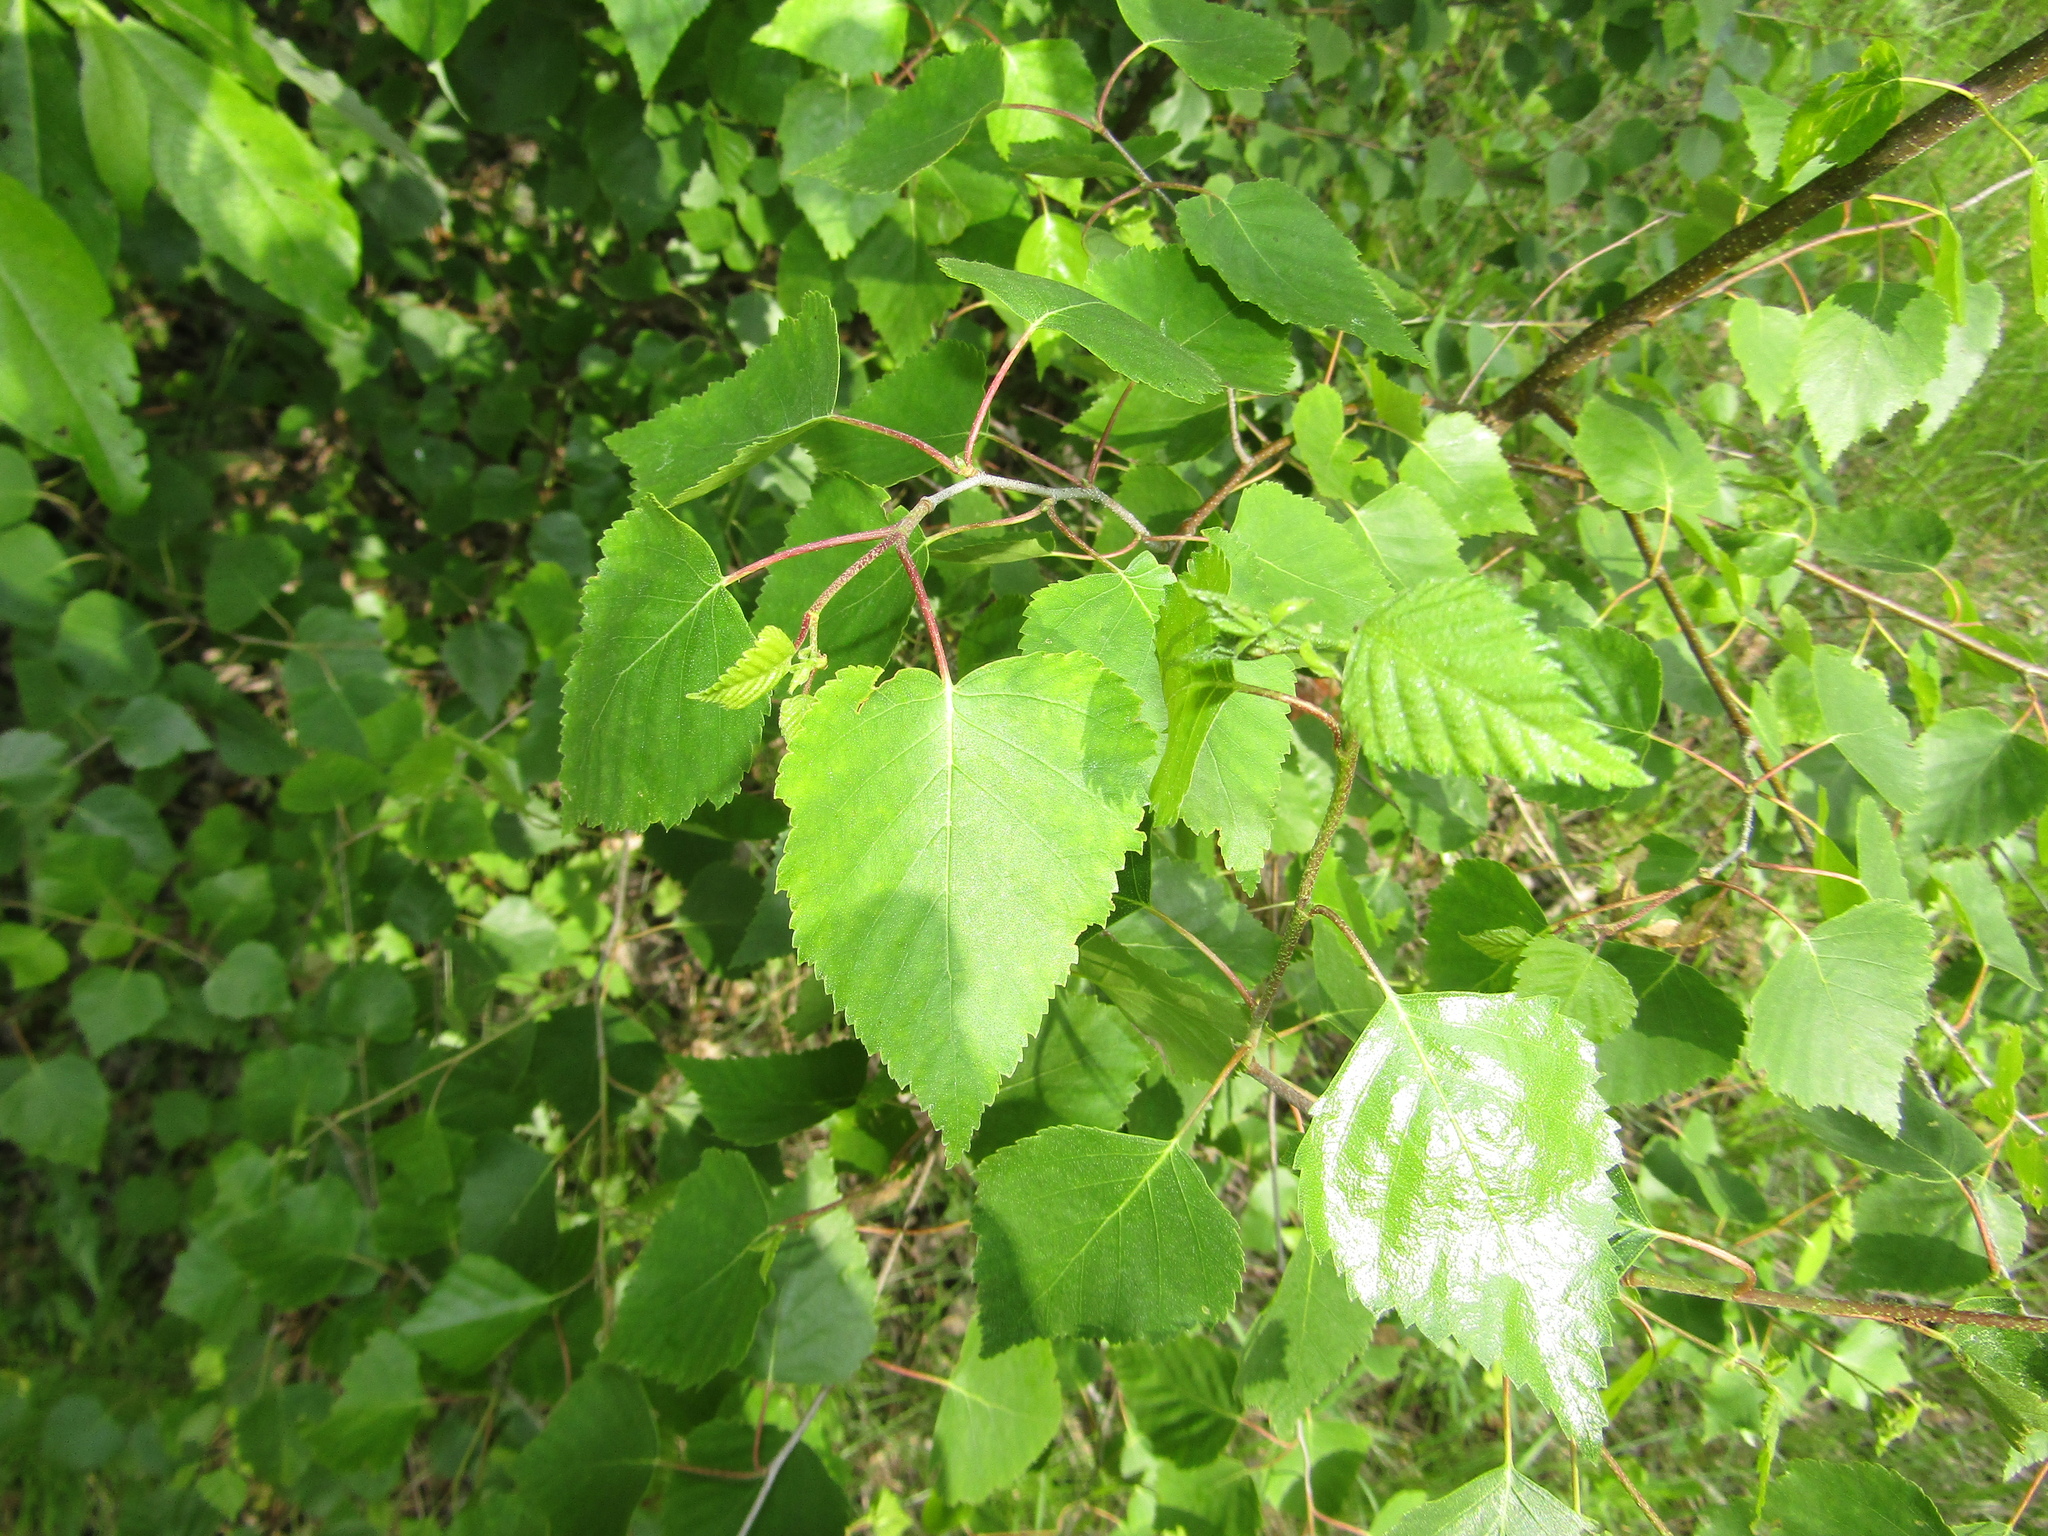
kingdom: Plantae
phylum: Tracheophyta
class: Magnoliopsida
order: Fagales
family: Betulaceae
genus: Betula
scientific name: Betula pendula
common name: Silver birch
